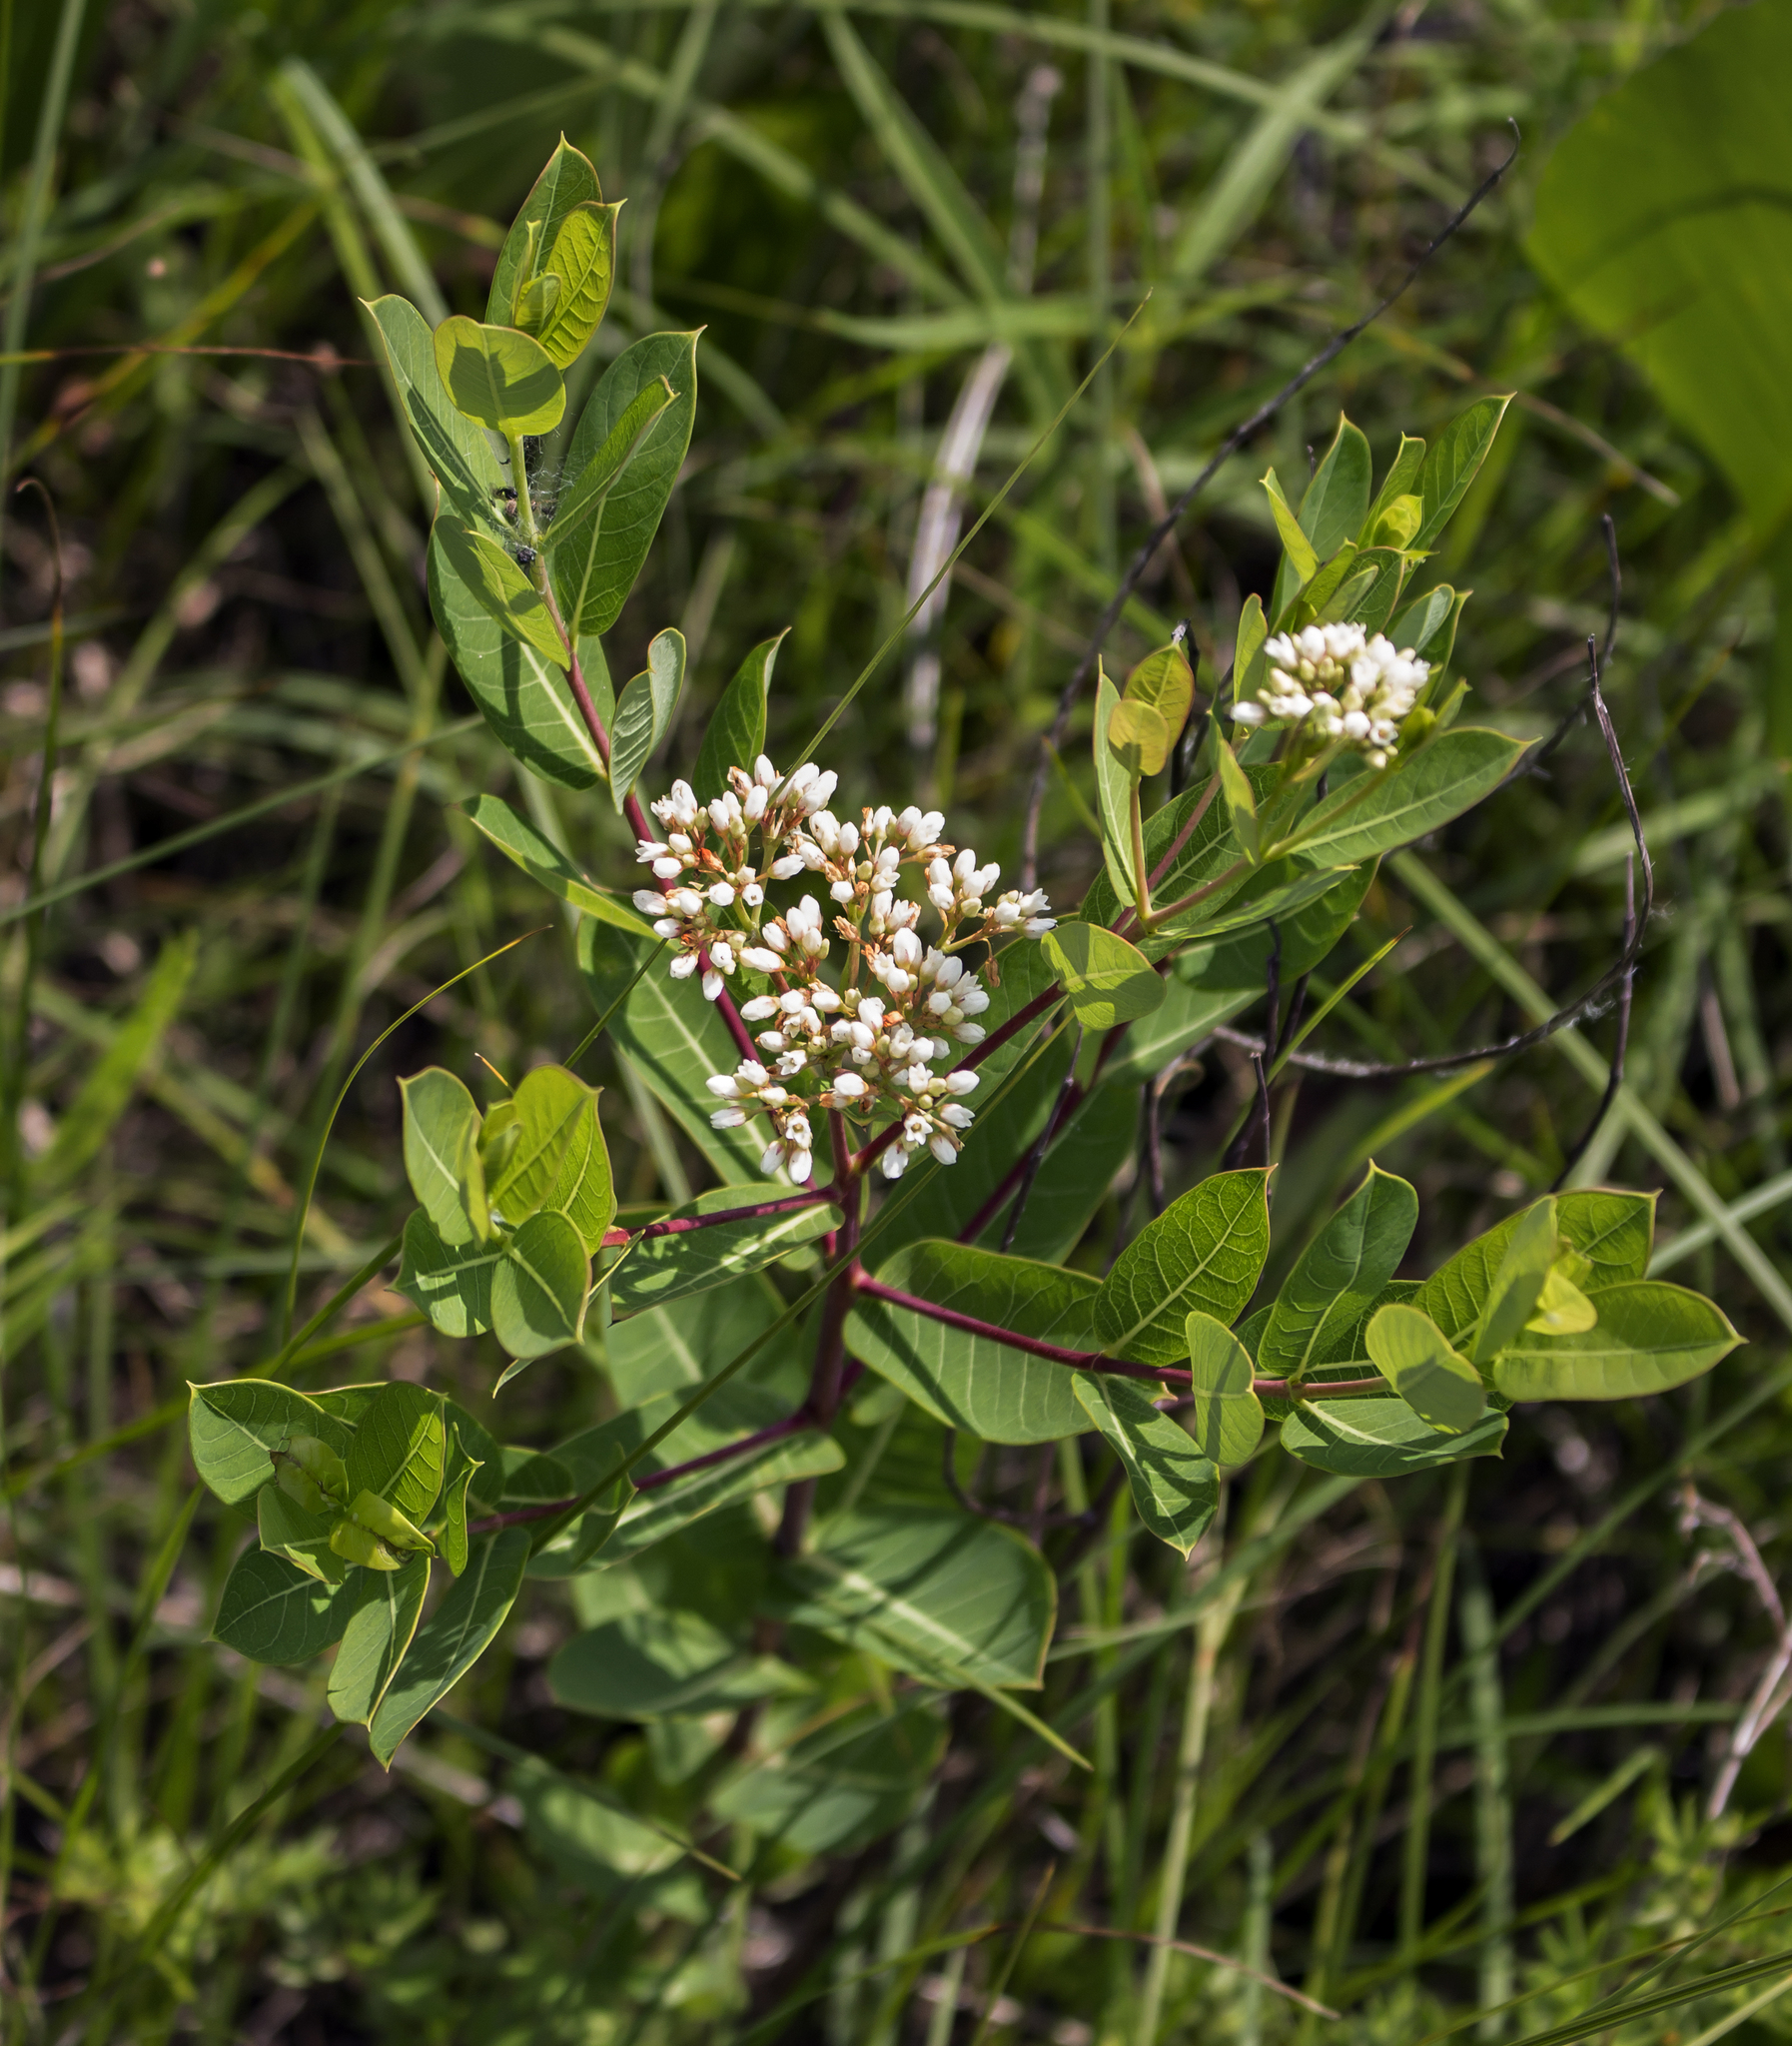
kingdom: Plantae
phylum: Tracheophyta
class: Magnoliopsida
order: Gentianales
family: Apocynaceae
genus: Apocynum
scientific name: Apocynum cannabinum
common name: Hemp dogbane
